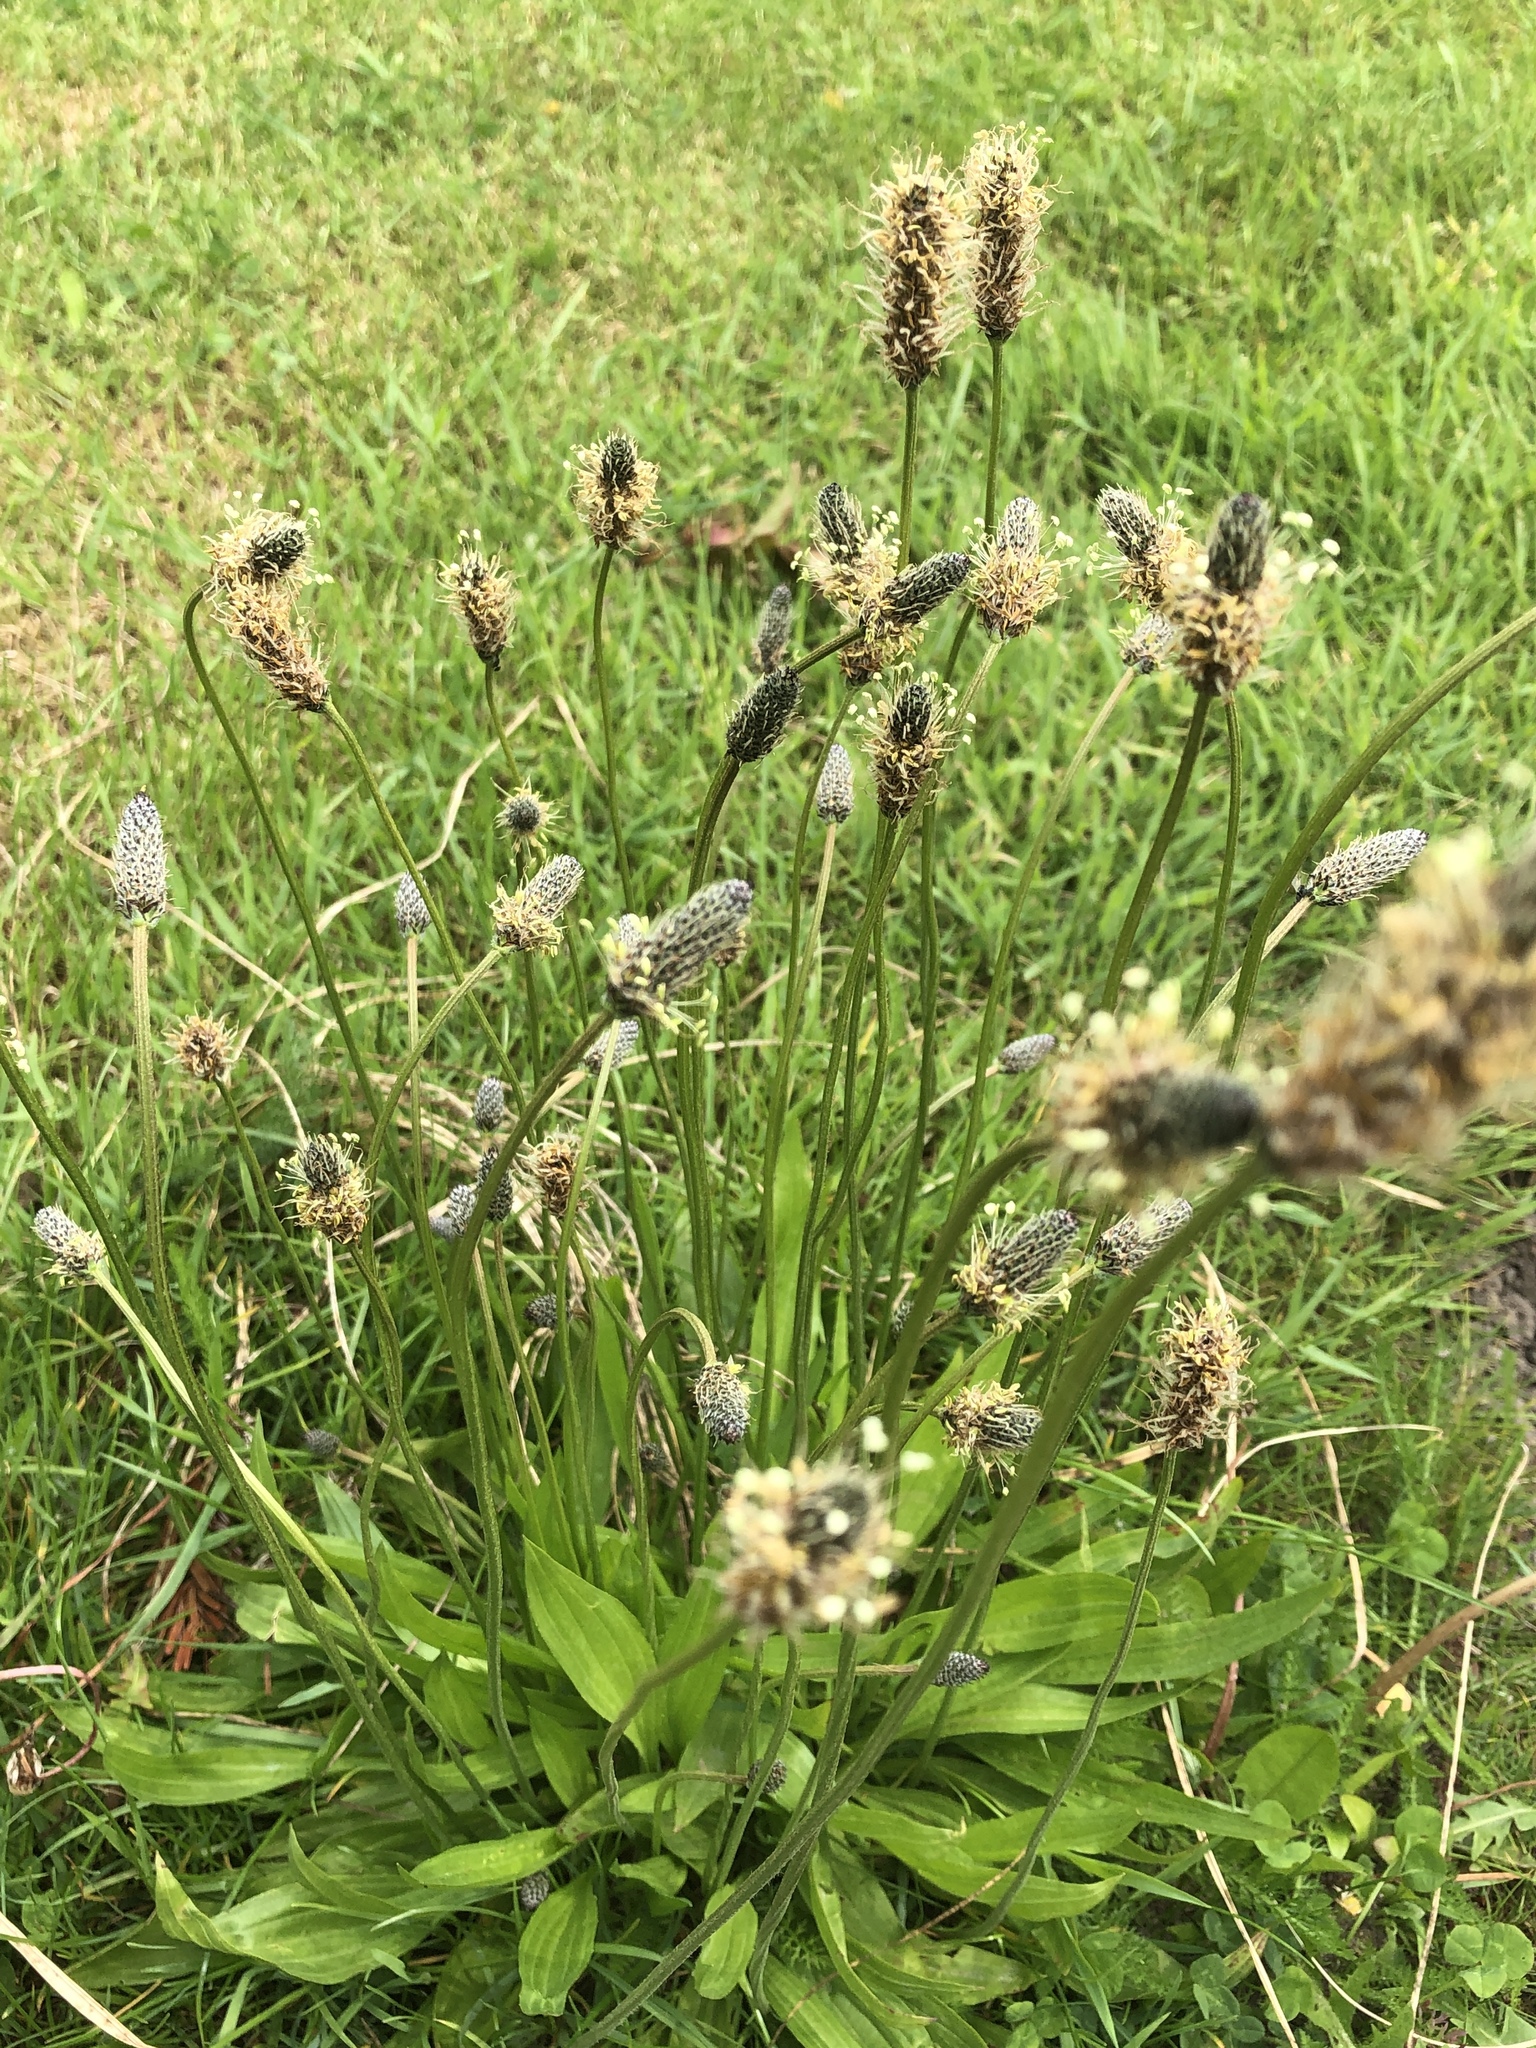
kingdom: Plantae
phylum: Tracheophyta
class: Magnoliopsida
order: Lamiales
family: Plantaginaceae
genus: Plantago
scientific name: Plantago lanceolata
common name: Ribwort plantain
